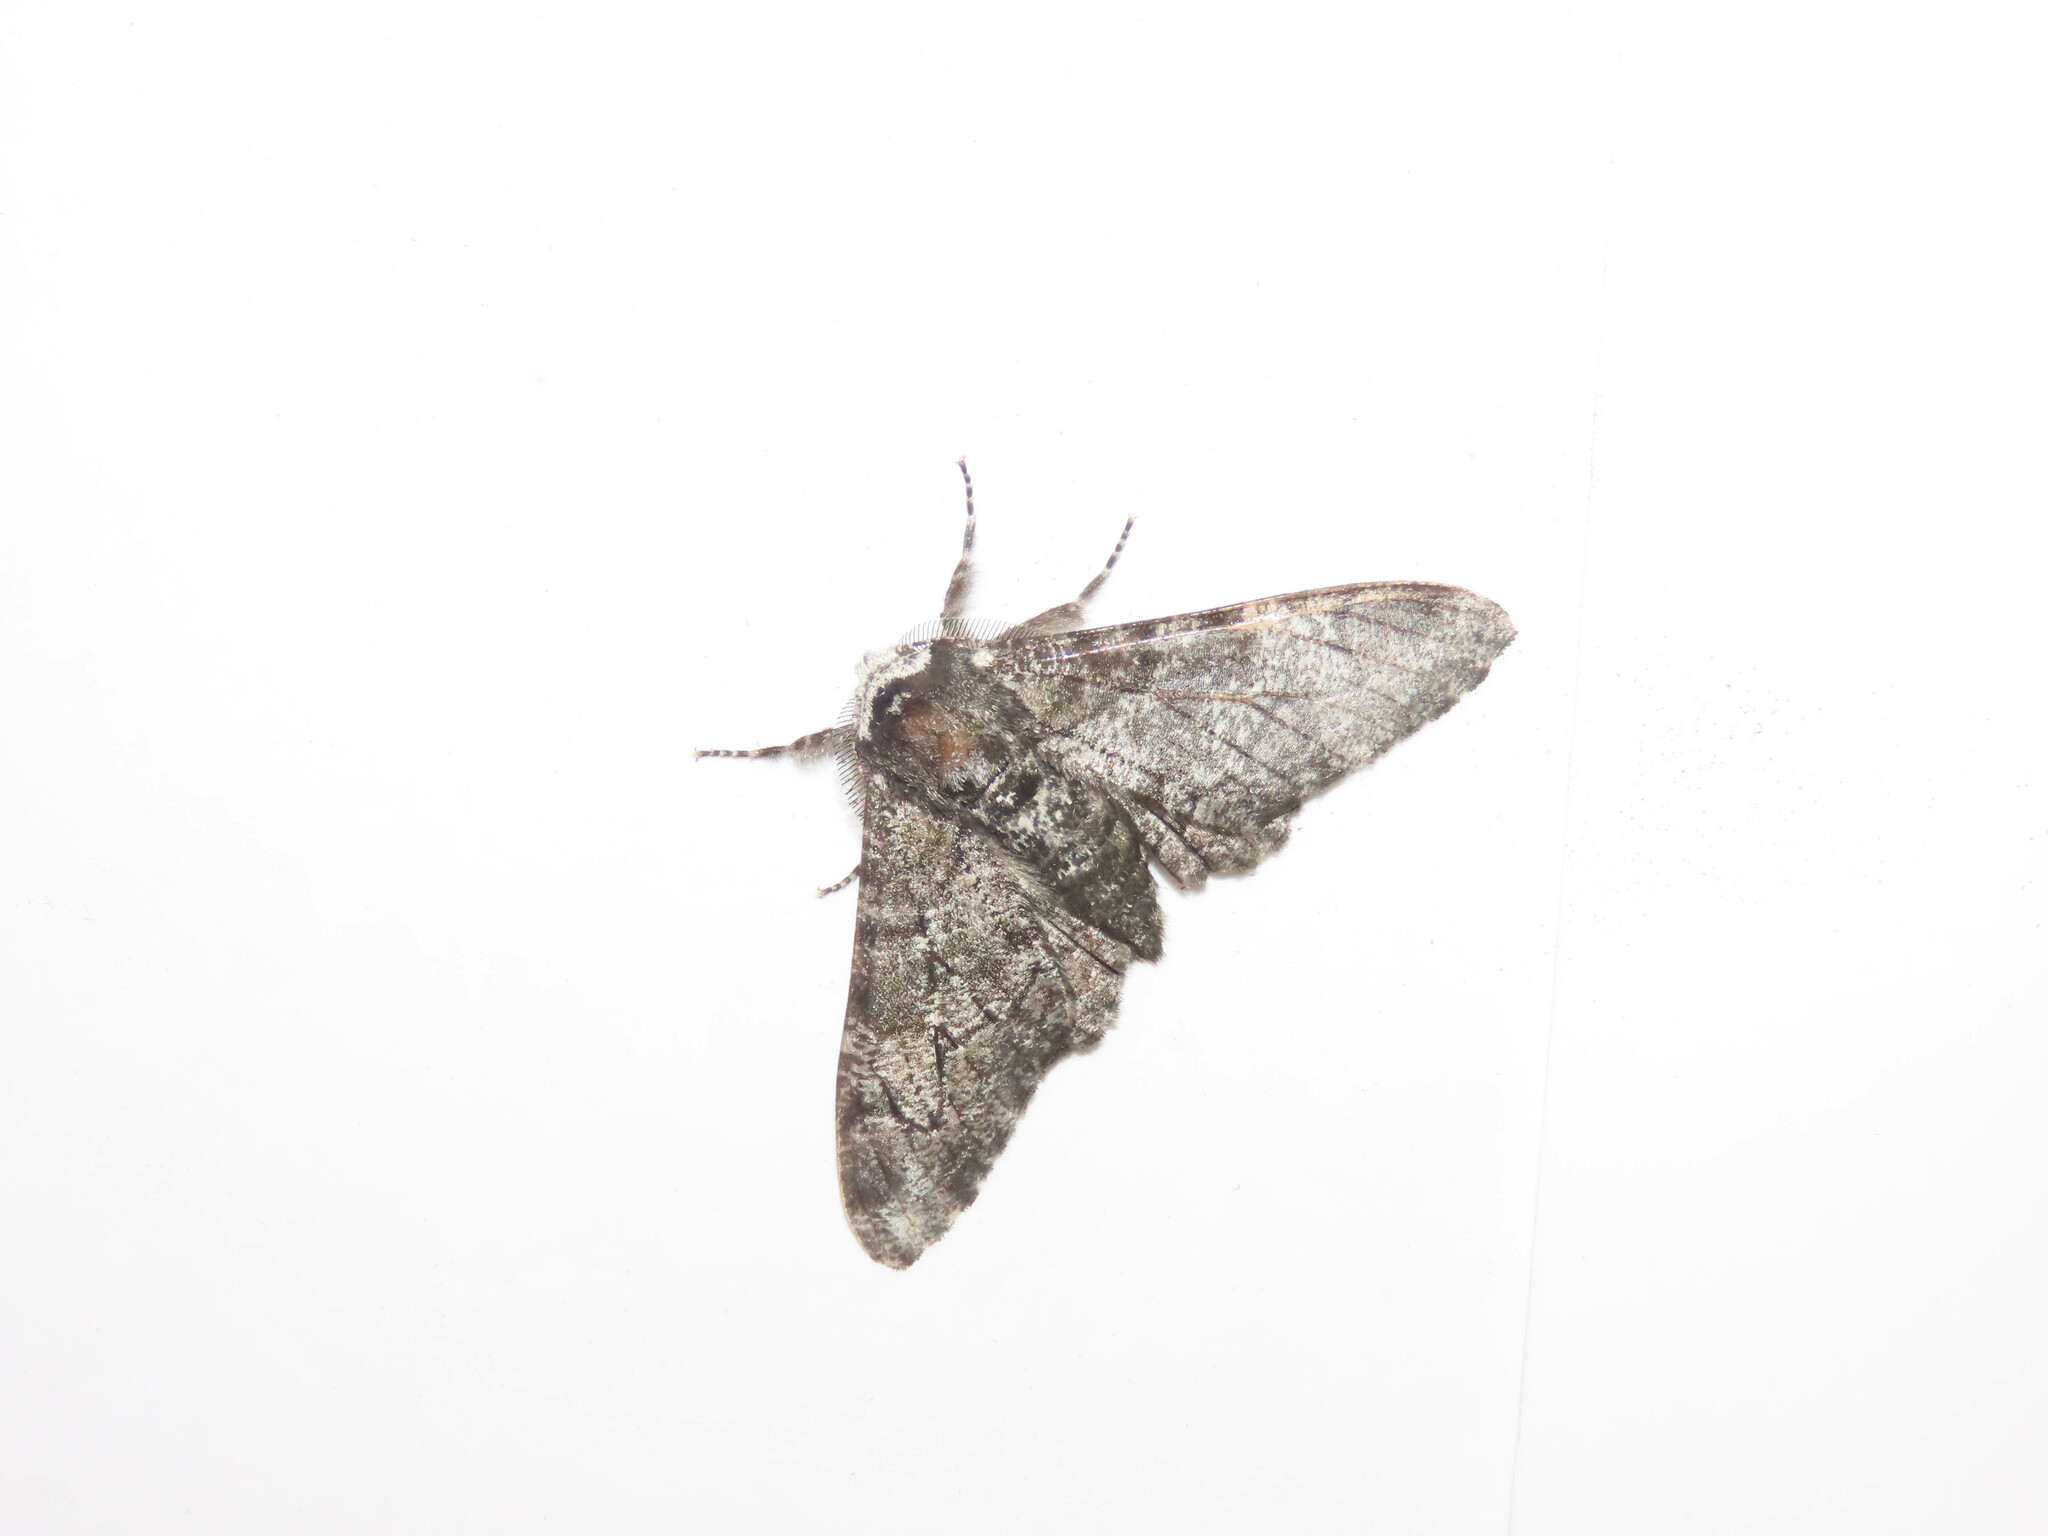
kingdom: Animalia
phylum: Arthropoda
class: Insecta
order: Lepidoptera
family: Geometridae
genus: Biston
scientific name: Biston betularia
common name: Peppered moth
